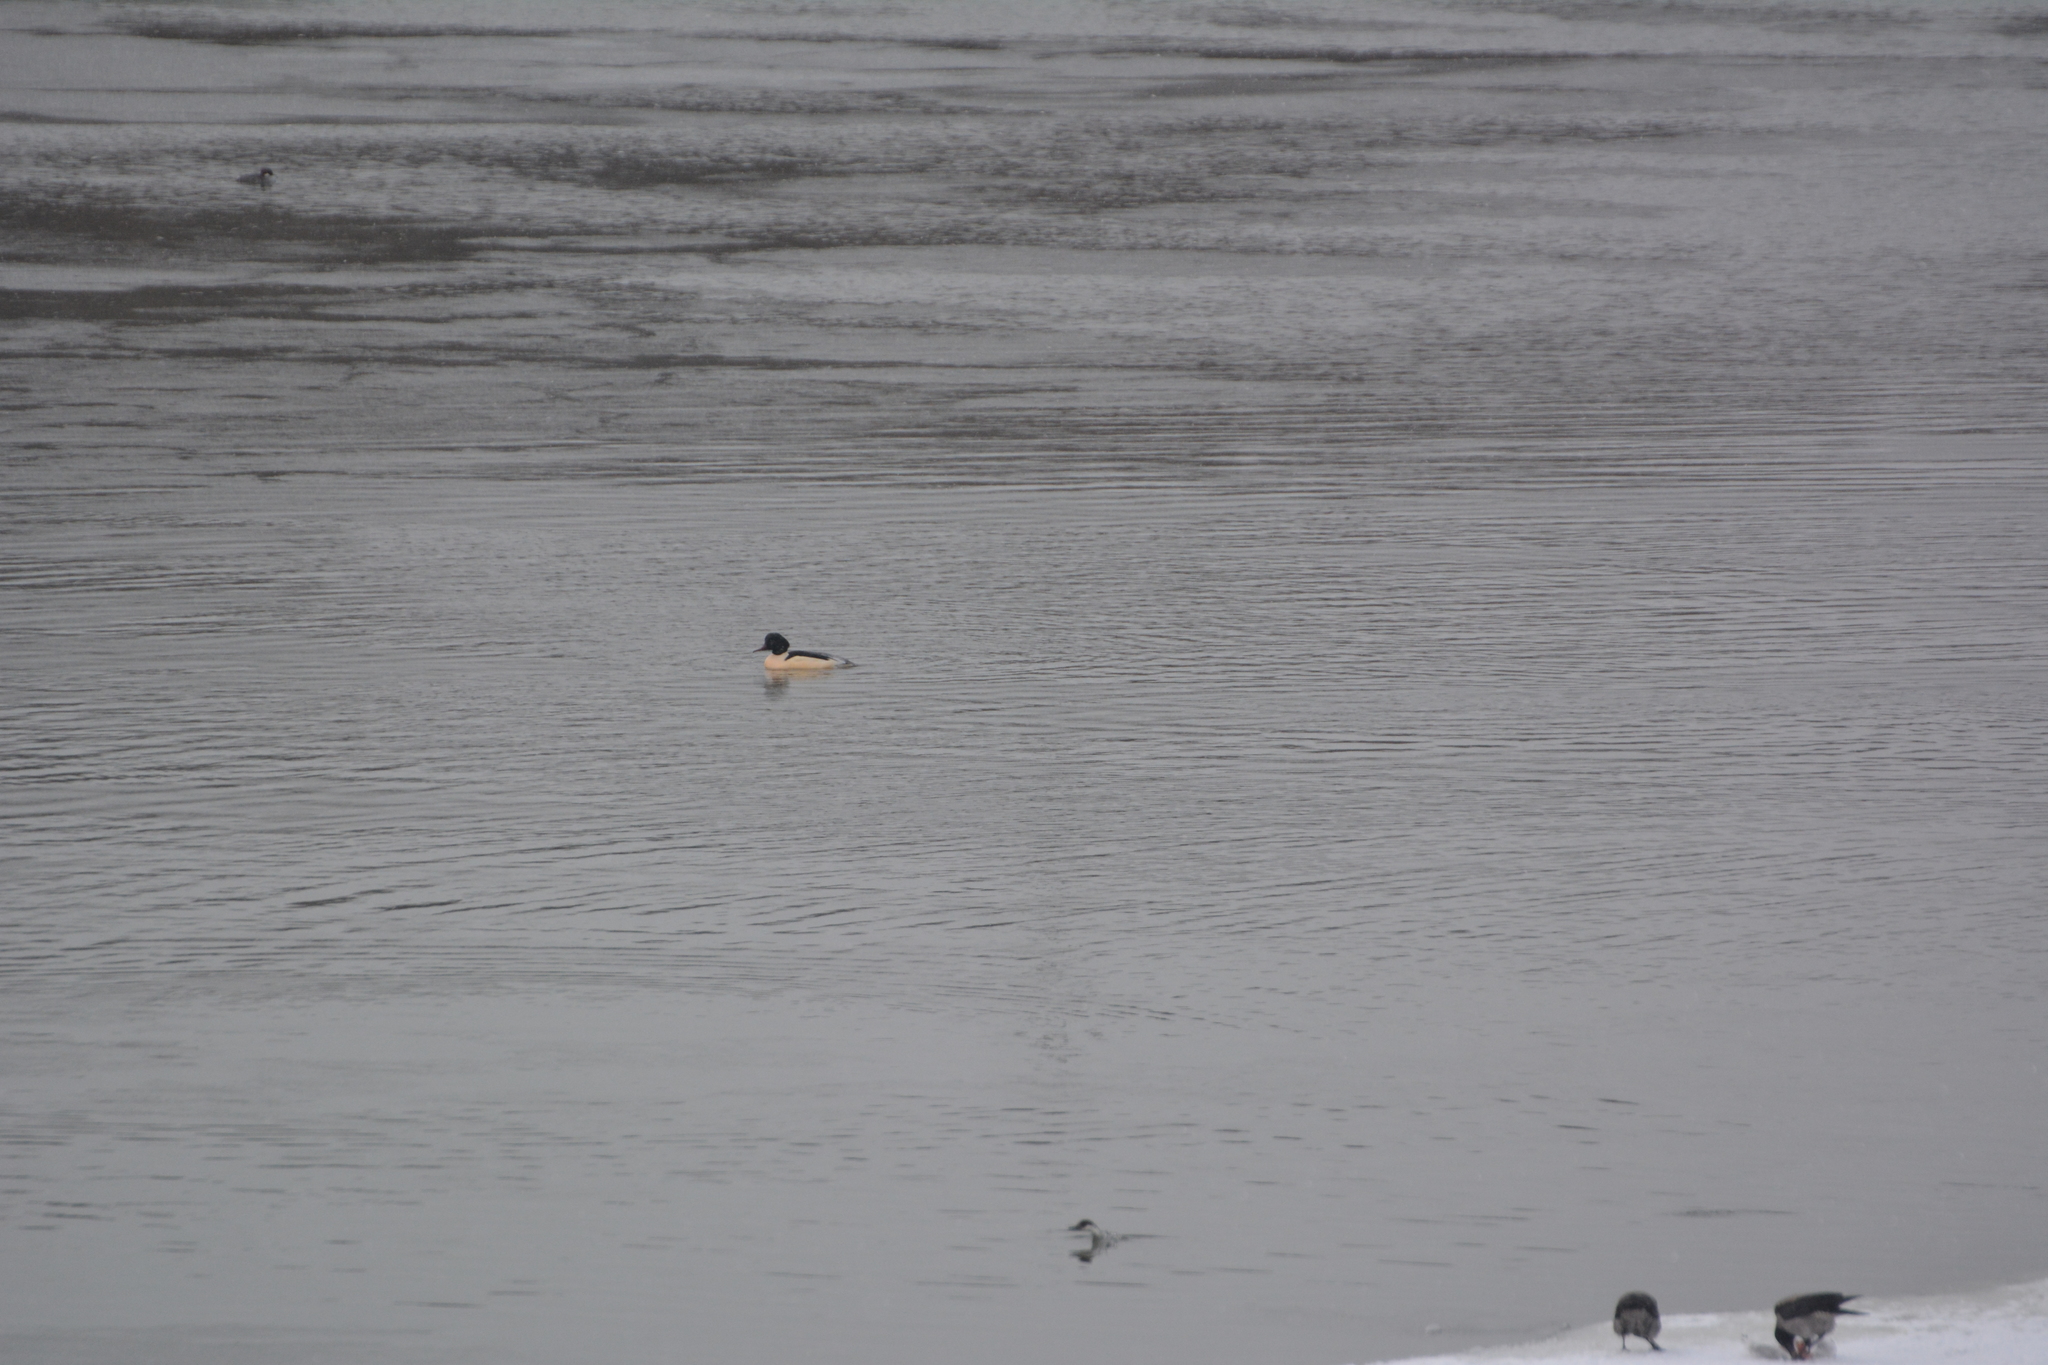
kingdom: Animalia
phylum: Chordata
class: Aves
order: Anseriformes
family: Anatidae
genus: Mergellus
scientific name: Mergellus albellus
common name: Smew
